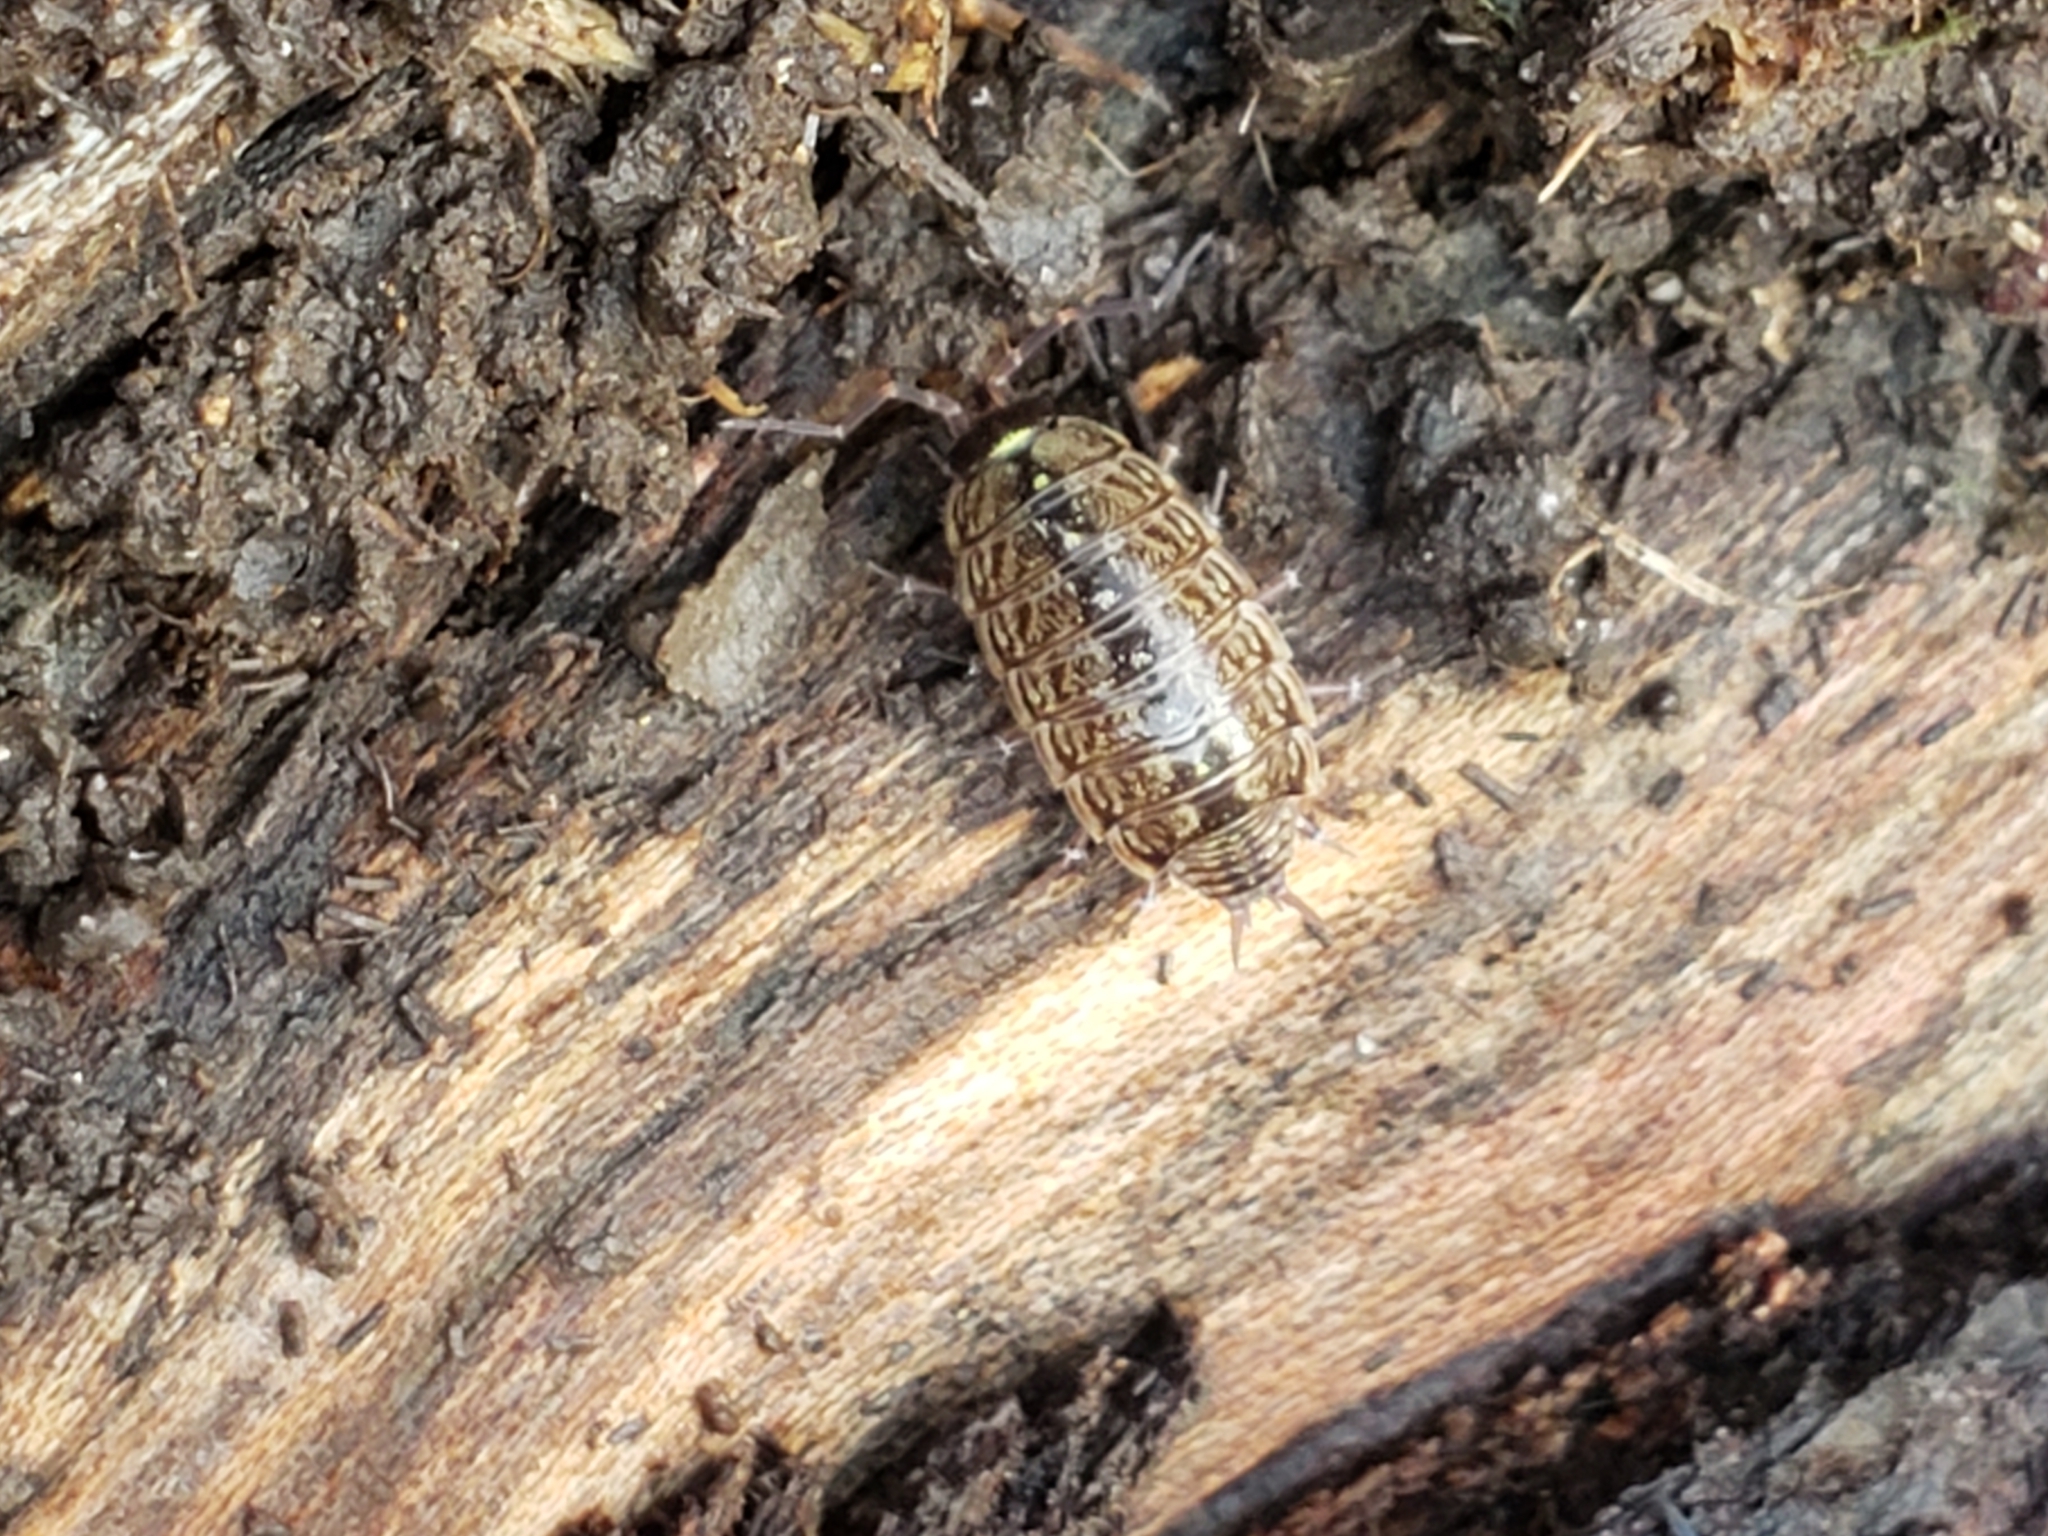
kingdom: Animalia
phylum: Arthropoda
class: Malacostraca
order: Isopoda
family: Philosciidae
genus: Philoscia
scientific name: Philoscia muscorum
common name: Common striped woodlouse
